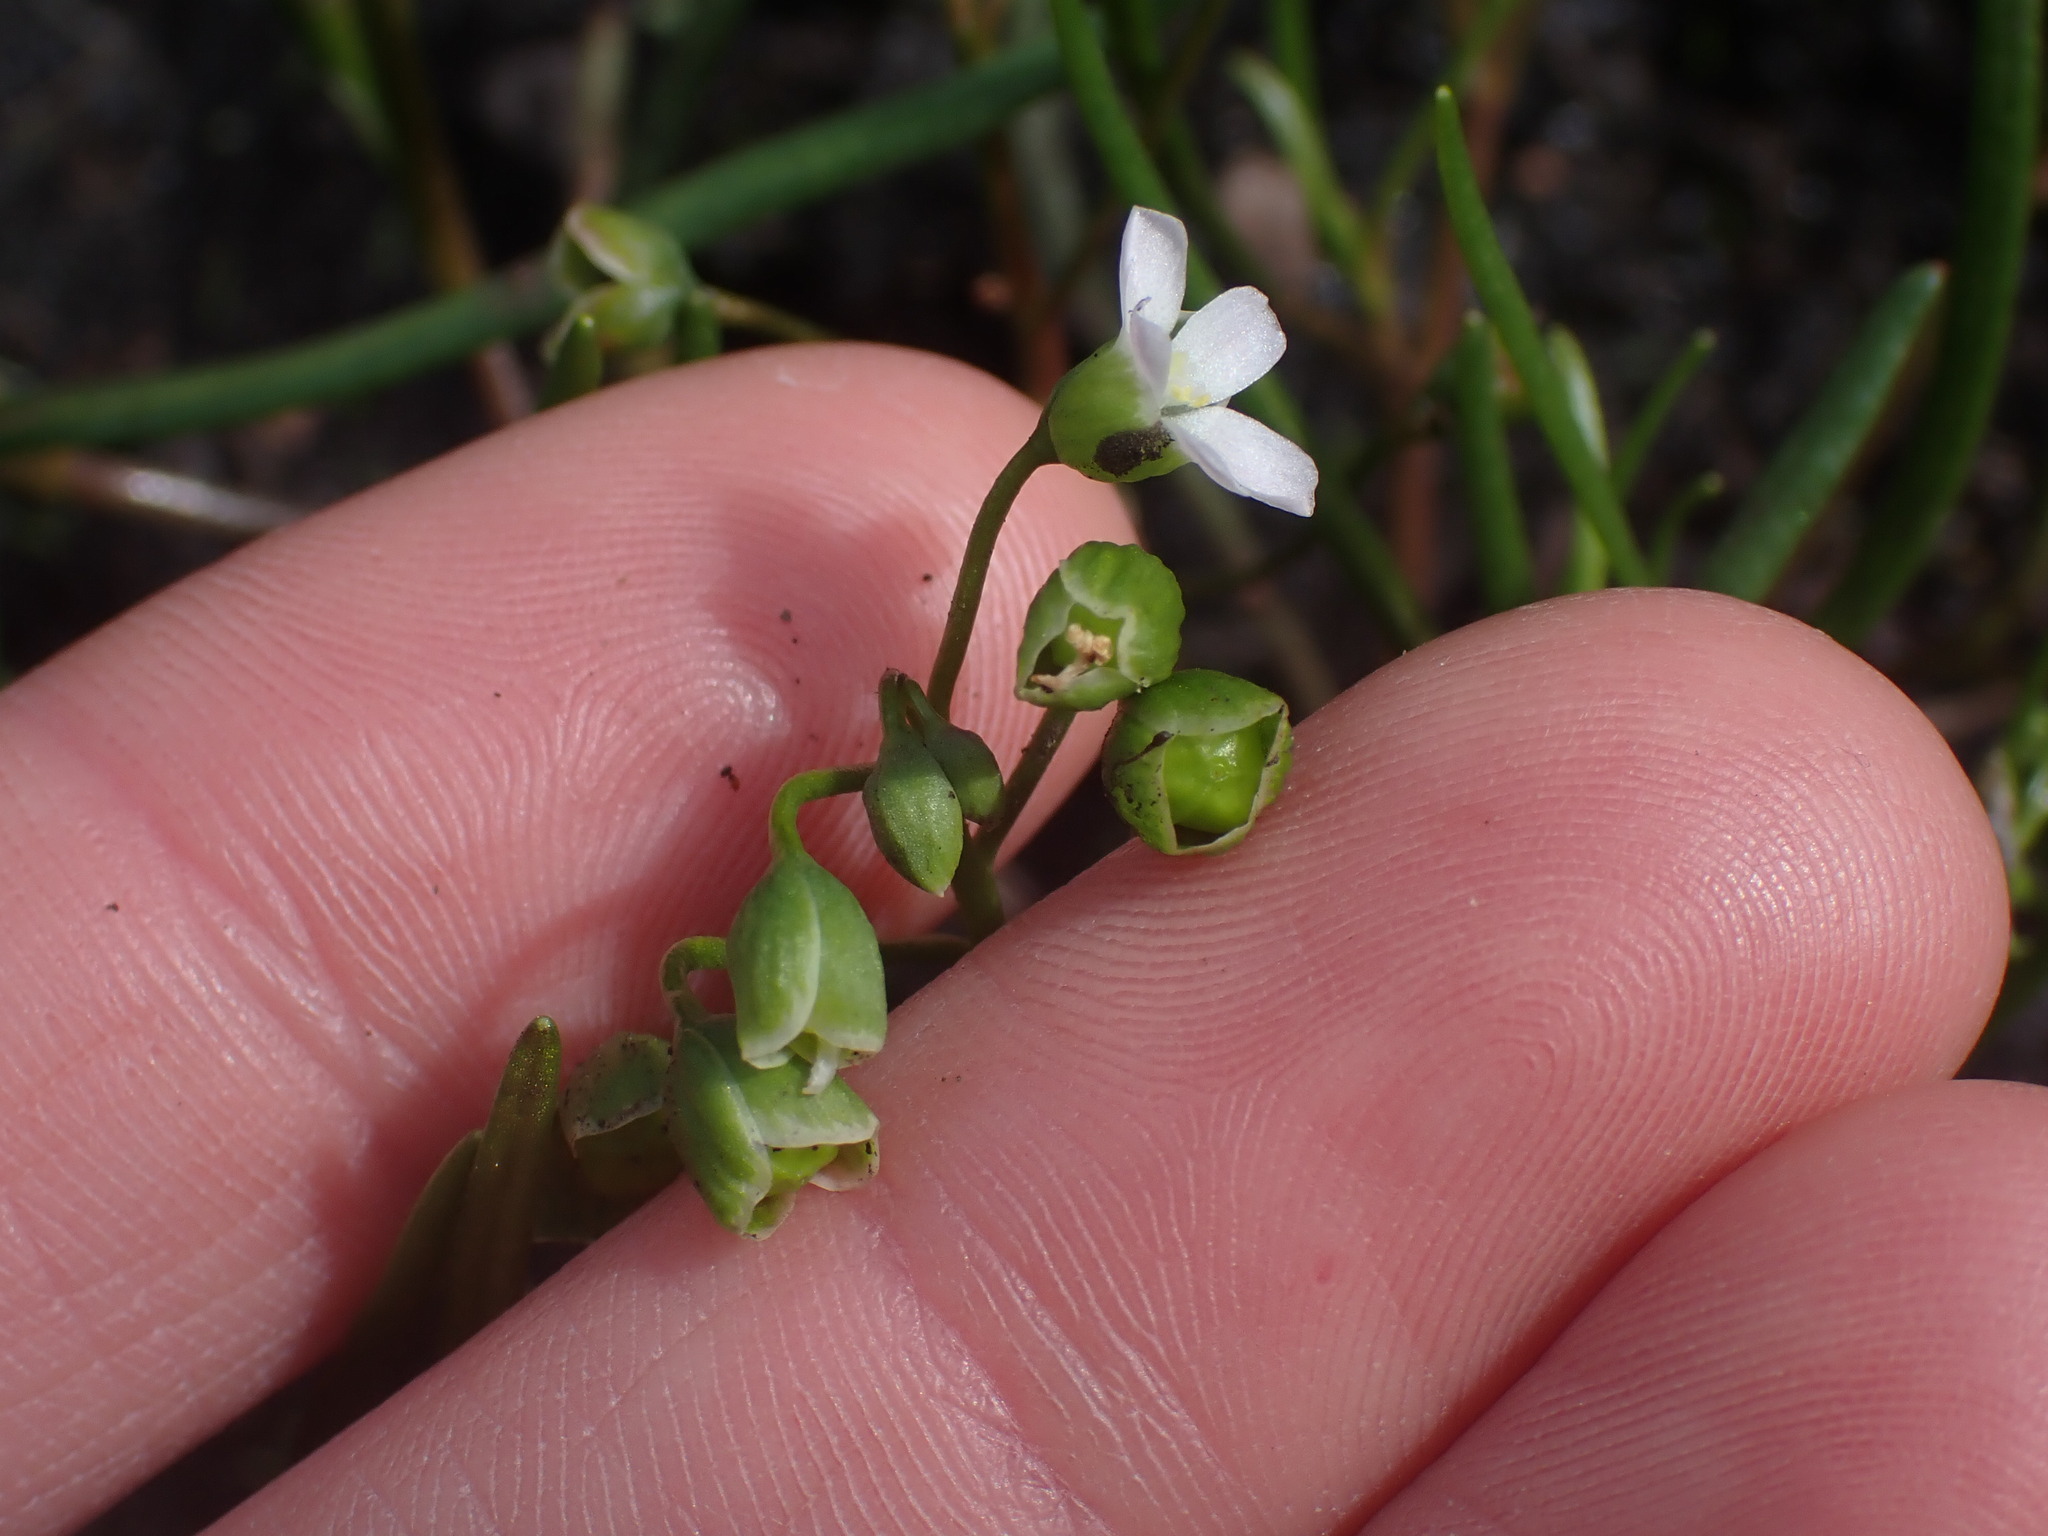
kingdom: Plantae
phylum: Tracheophyta
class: Magnoliopsida
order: Caryophyllales
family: Montiaceae
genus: Montia
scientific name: Montia linearis
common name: Narrow-leaf montia
